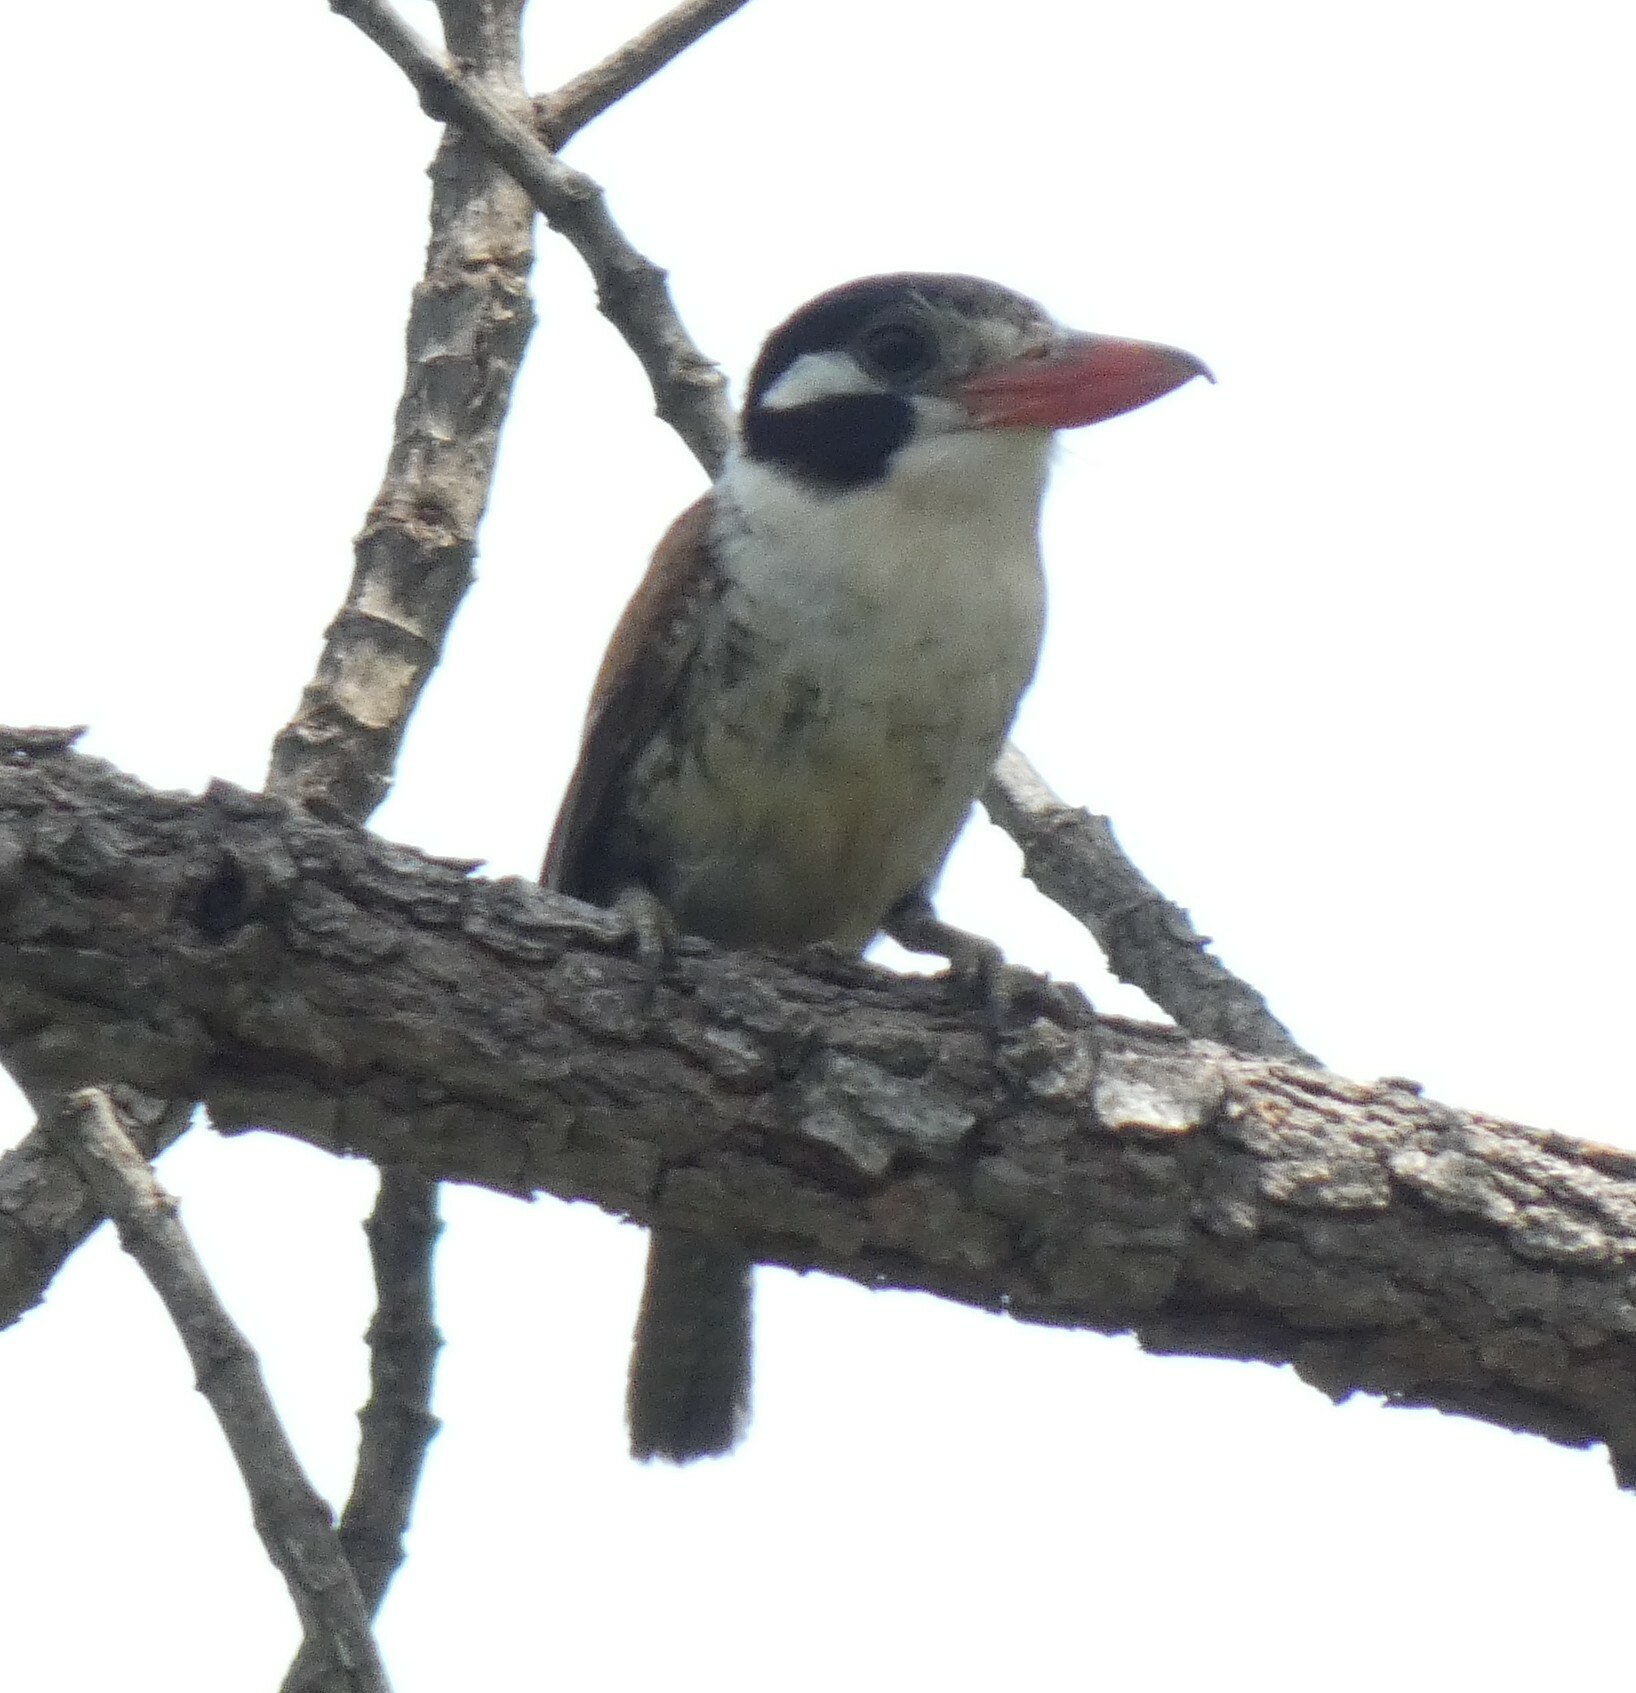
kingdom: Animalia
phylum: Chordata
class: Aves
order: Piciformes
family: Bucconidae
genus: Nystalus
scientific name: Nystalus chacuru
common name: White-eared puffbird
